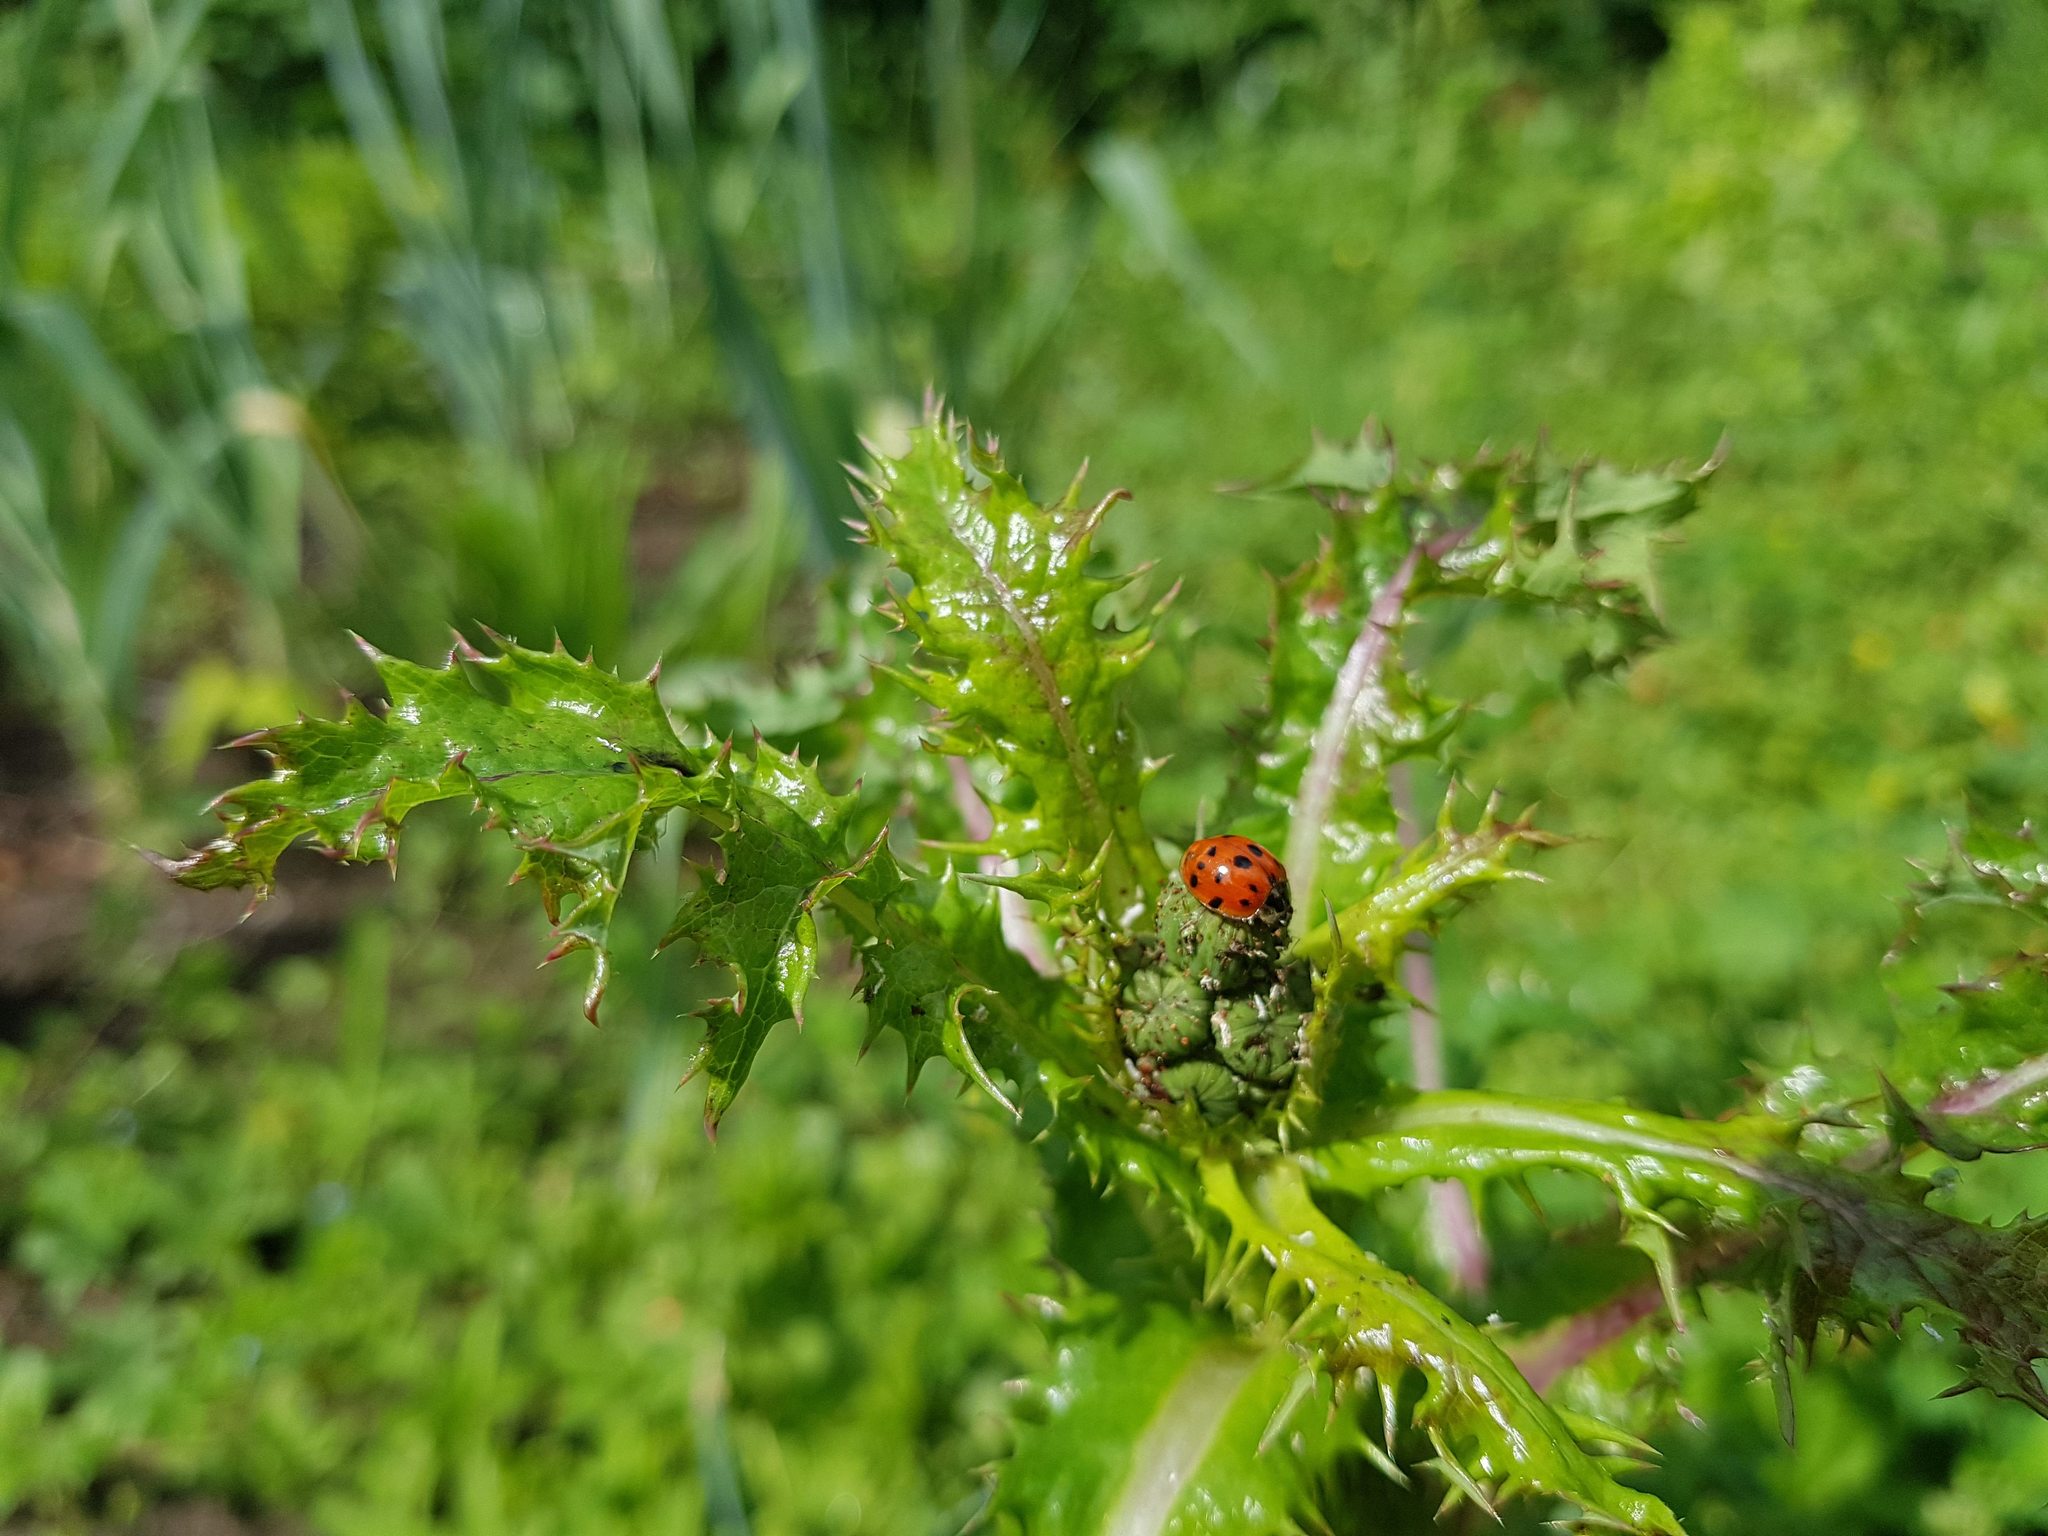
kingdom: Animalia
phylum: Arthropoda
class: Insecta
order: Coleoptera
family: Coccinellidae
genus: Harmonia
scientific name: Harmonia axyridis
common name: Harlequin ladybird
